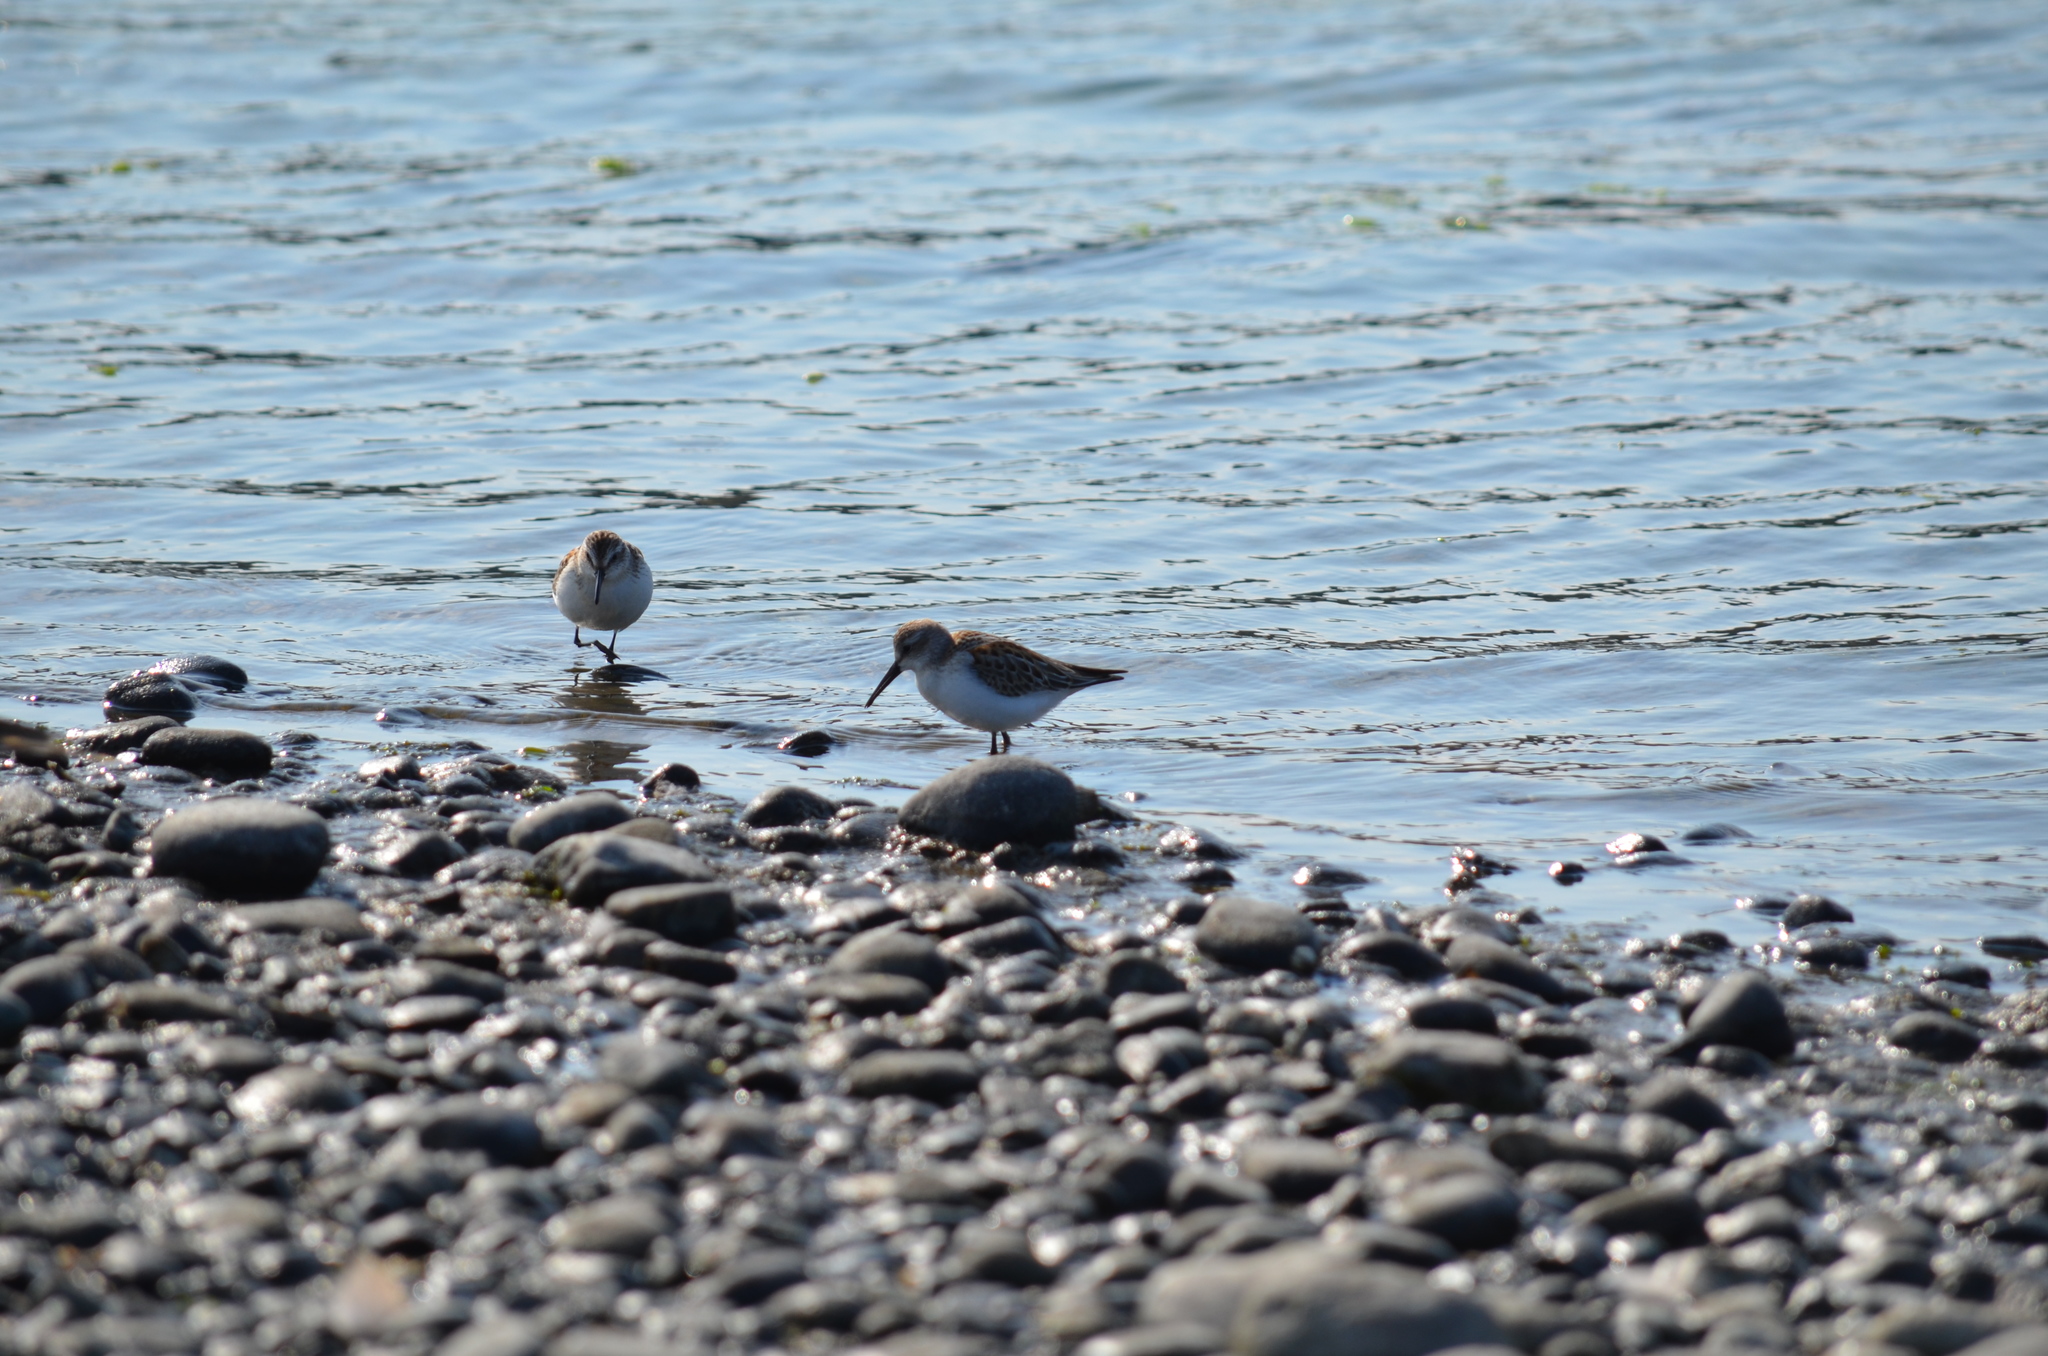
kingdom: Animalia
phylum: Chordata
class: Aves
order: Charadriiformes
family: Scolopacidae
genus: Calidris
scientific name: Calidris mauri
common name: Western sandpiper
